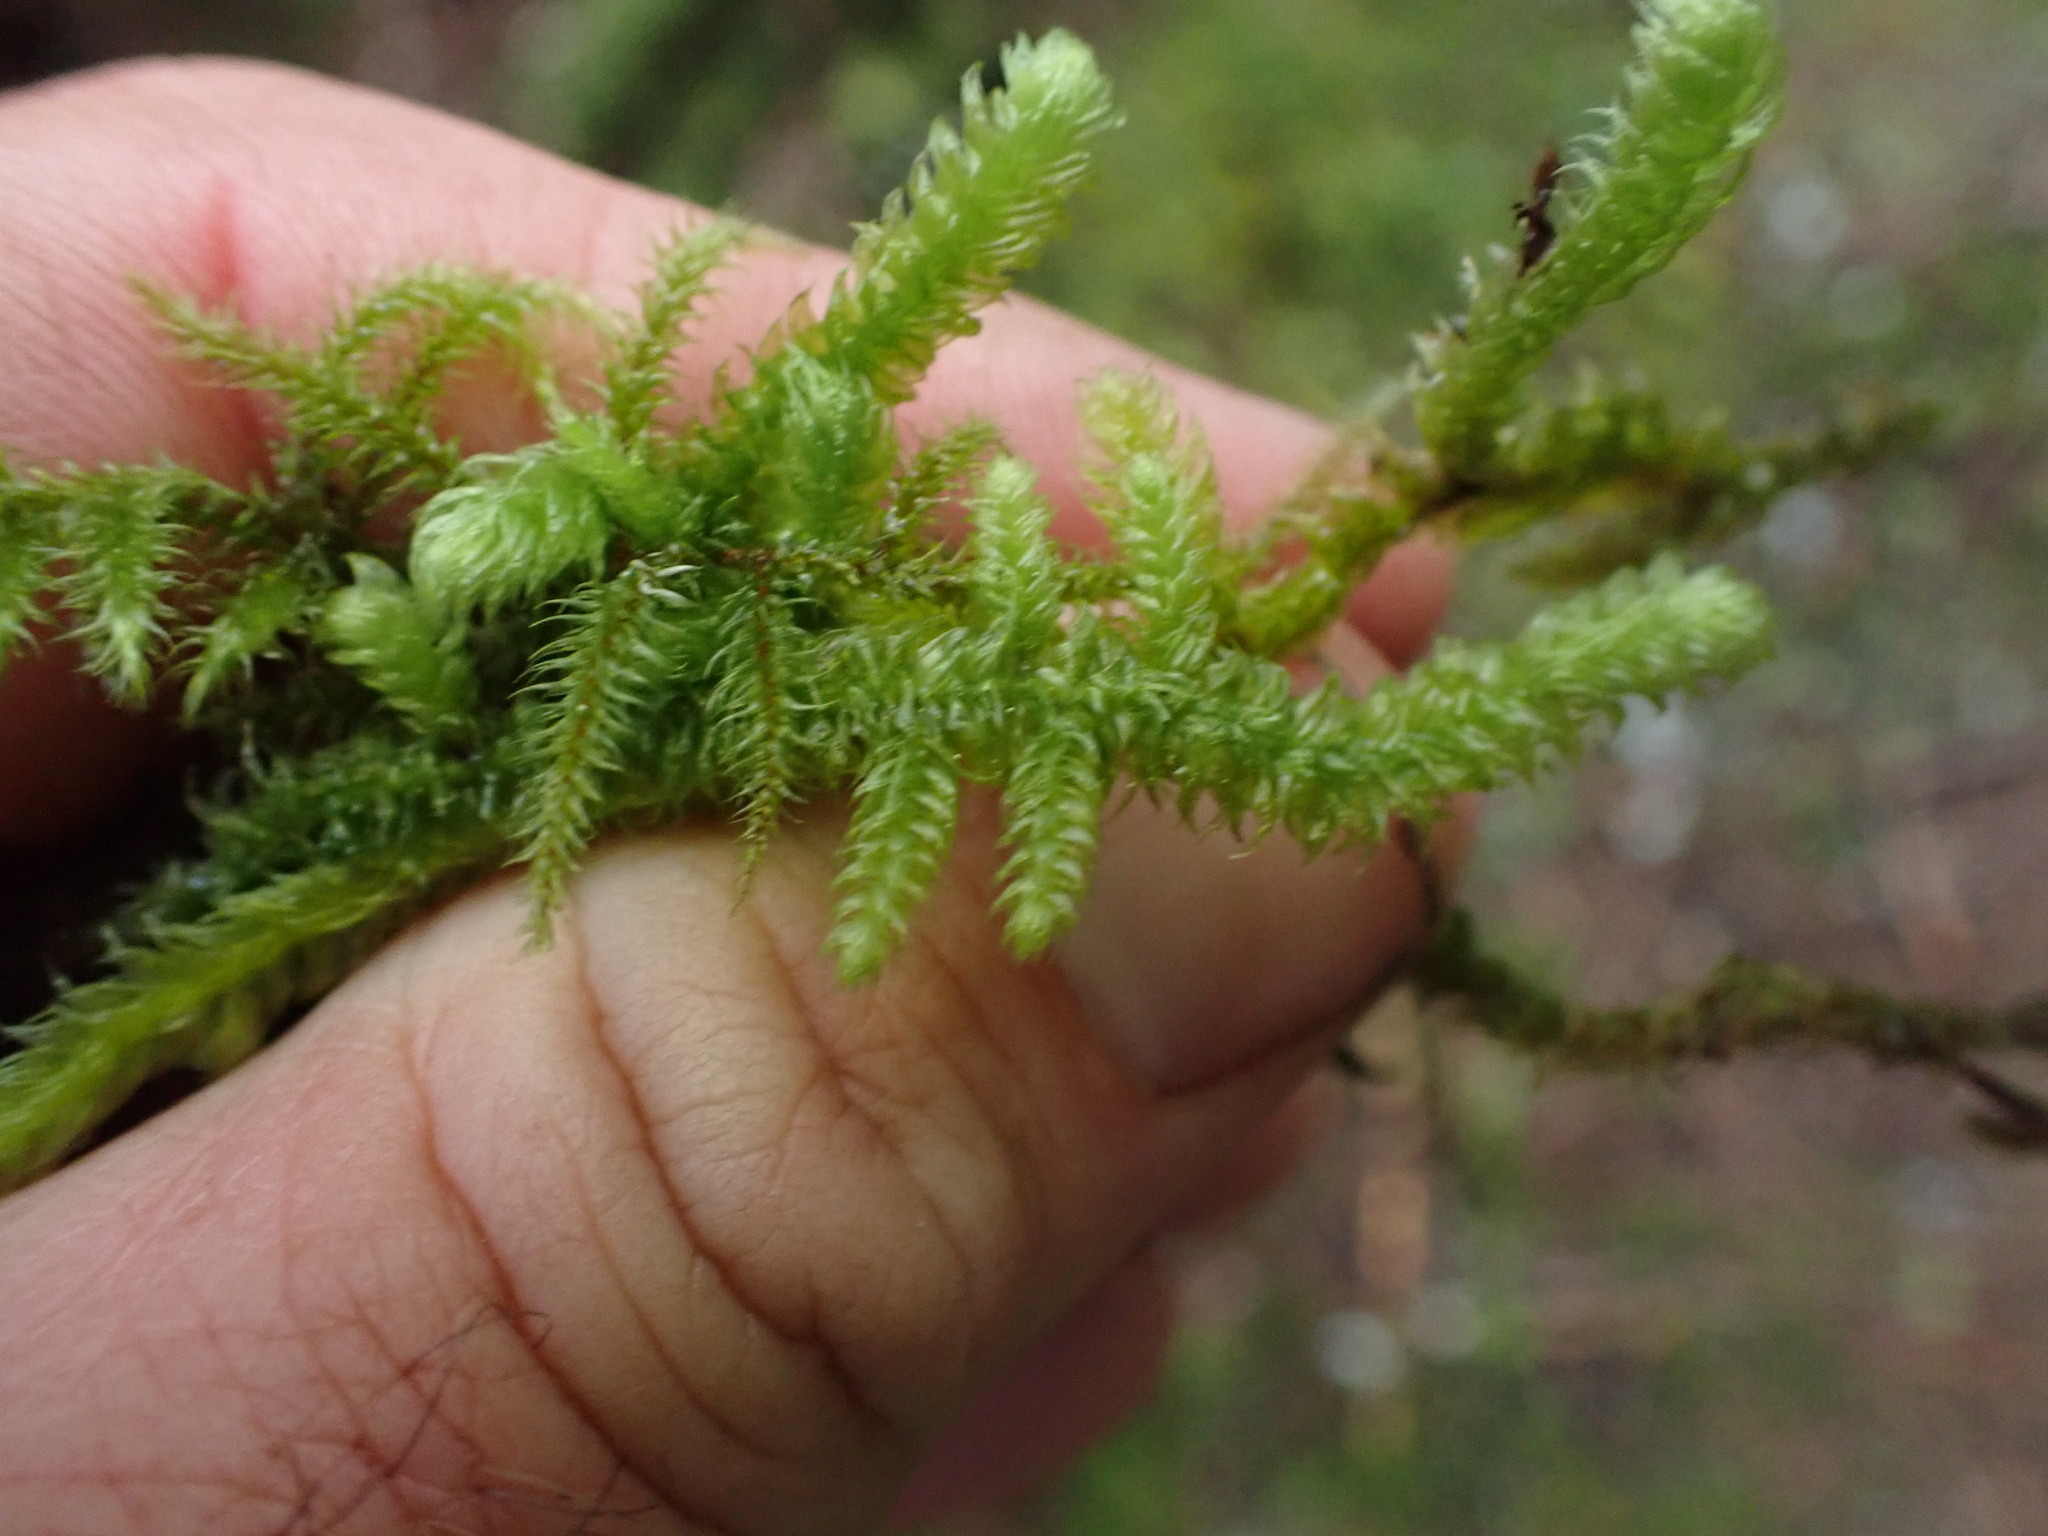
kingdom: Plantae
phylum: Bryophyta
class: Bryopsida
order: Hypnales
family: Hylocomiaceae
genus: Rhytidiopsis
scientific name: Rhytidiopsis robusta
